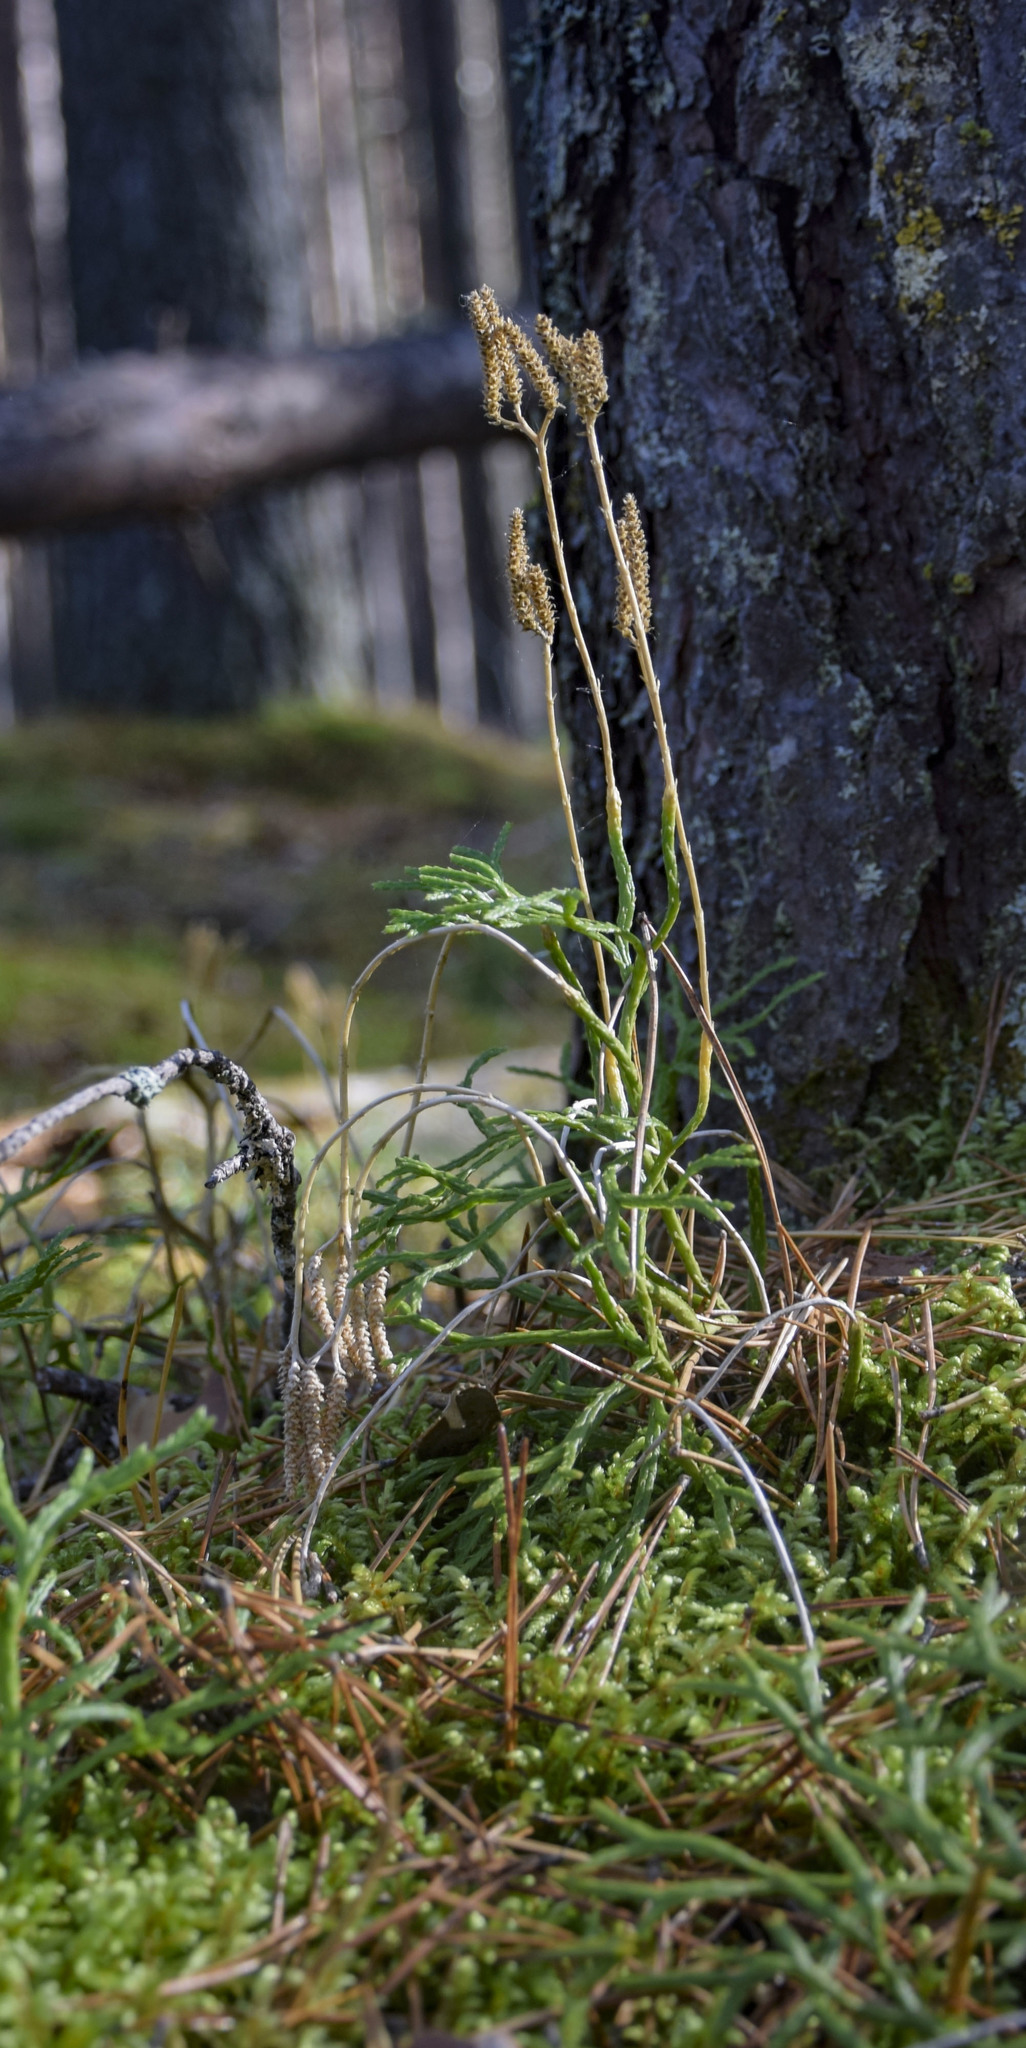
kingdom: Plantae
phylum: Tracheophyta
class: Lycopodiopsida
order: Lycopodiales
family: Lycopodiaceae
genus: Diphasiastrum
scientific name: Diphasiastrum tristachyum
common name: Blue ground-cedar
